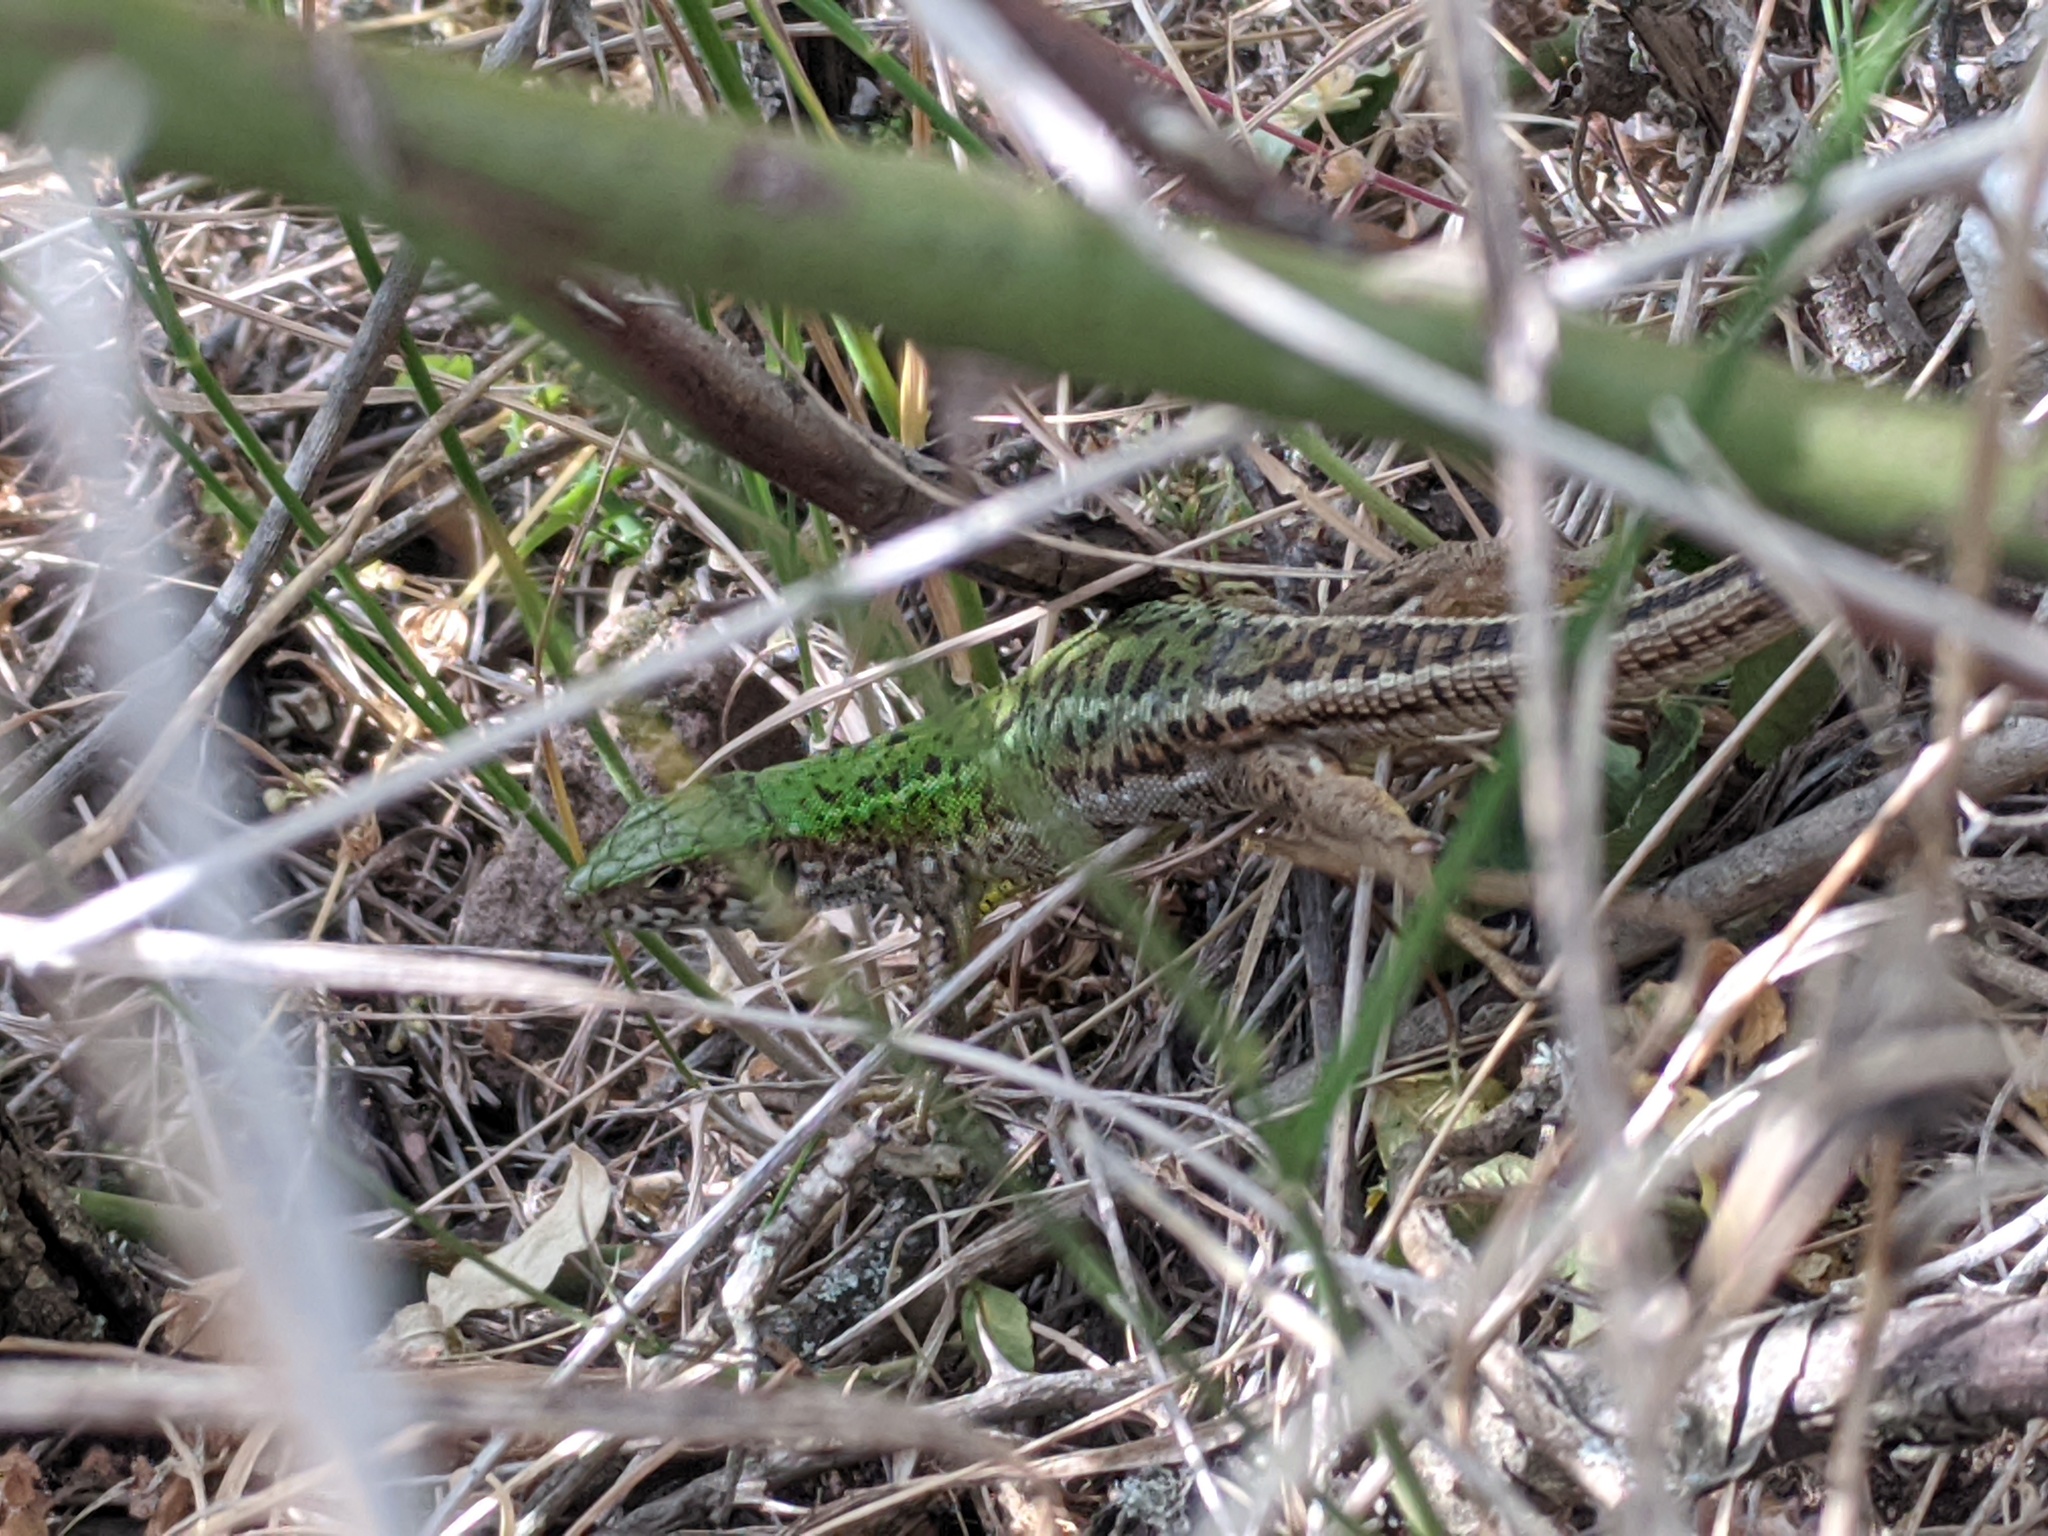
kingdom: Animalia
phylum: Chordata
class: Squamata
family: Lacertidae
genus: Lacerta
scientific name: Lacerta viridis
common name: European green lizard
